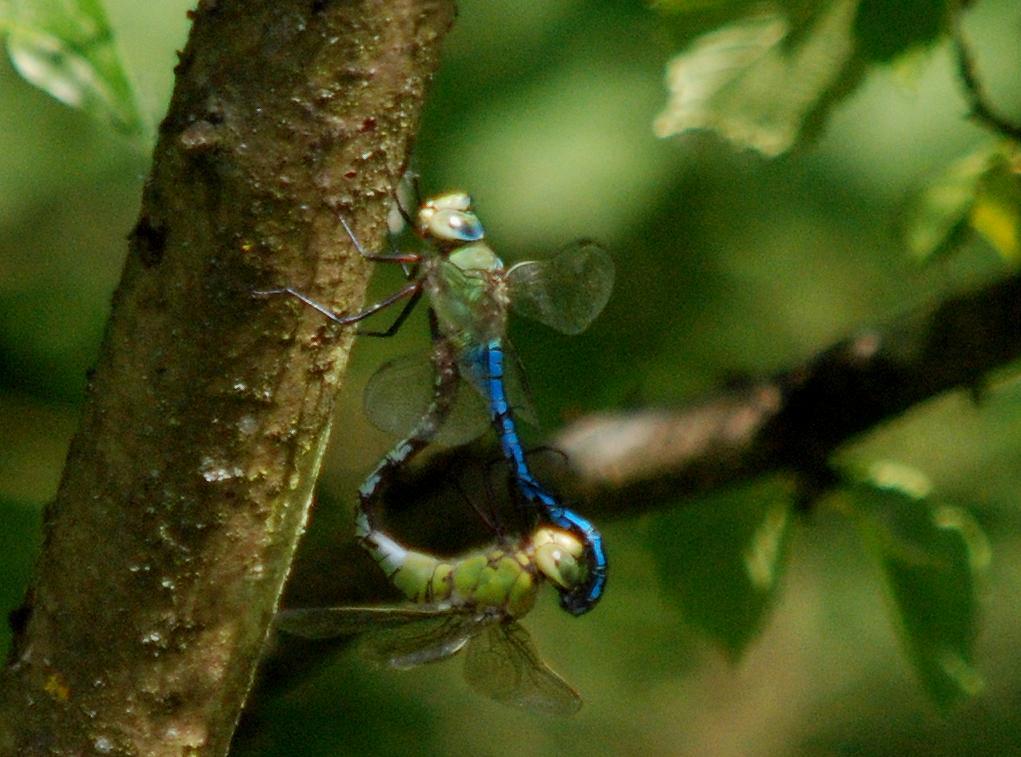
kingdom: Animalia
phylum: Arthropoda
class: Insecta
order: Odonata
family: Aeshnidae
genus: Anax
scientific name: Anax imperator
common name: Emperor dragonfly
